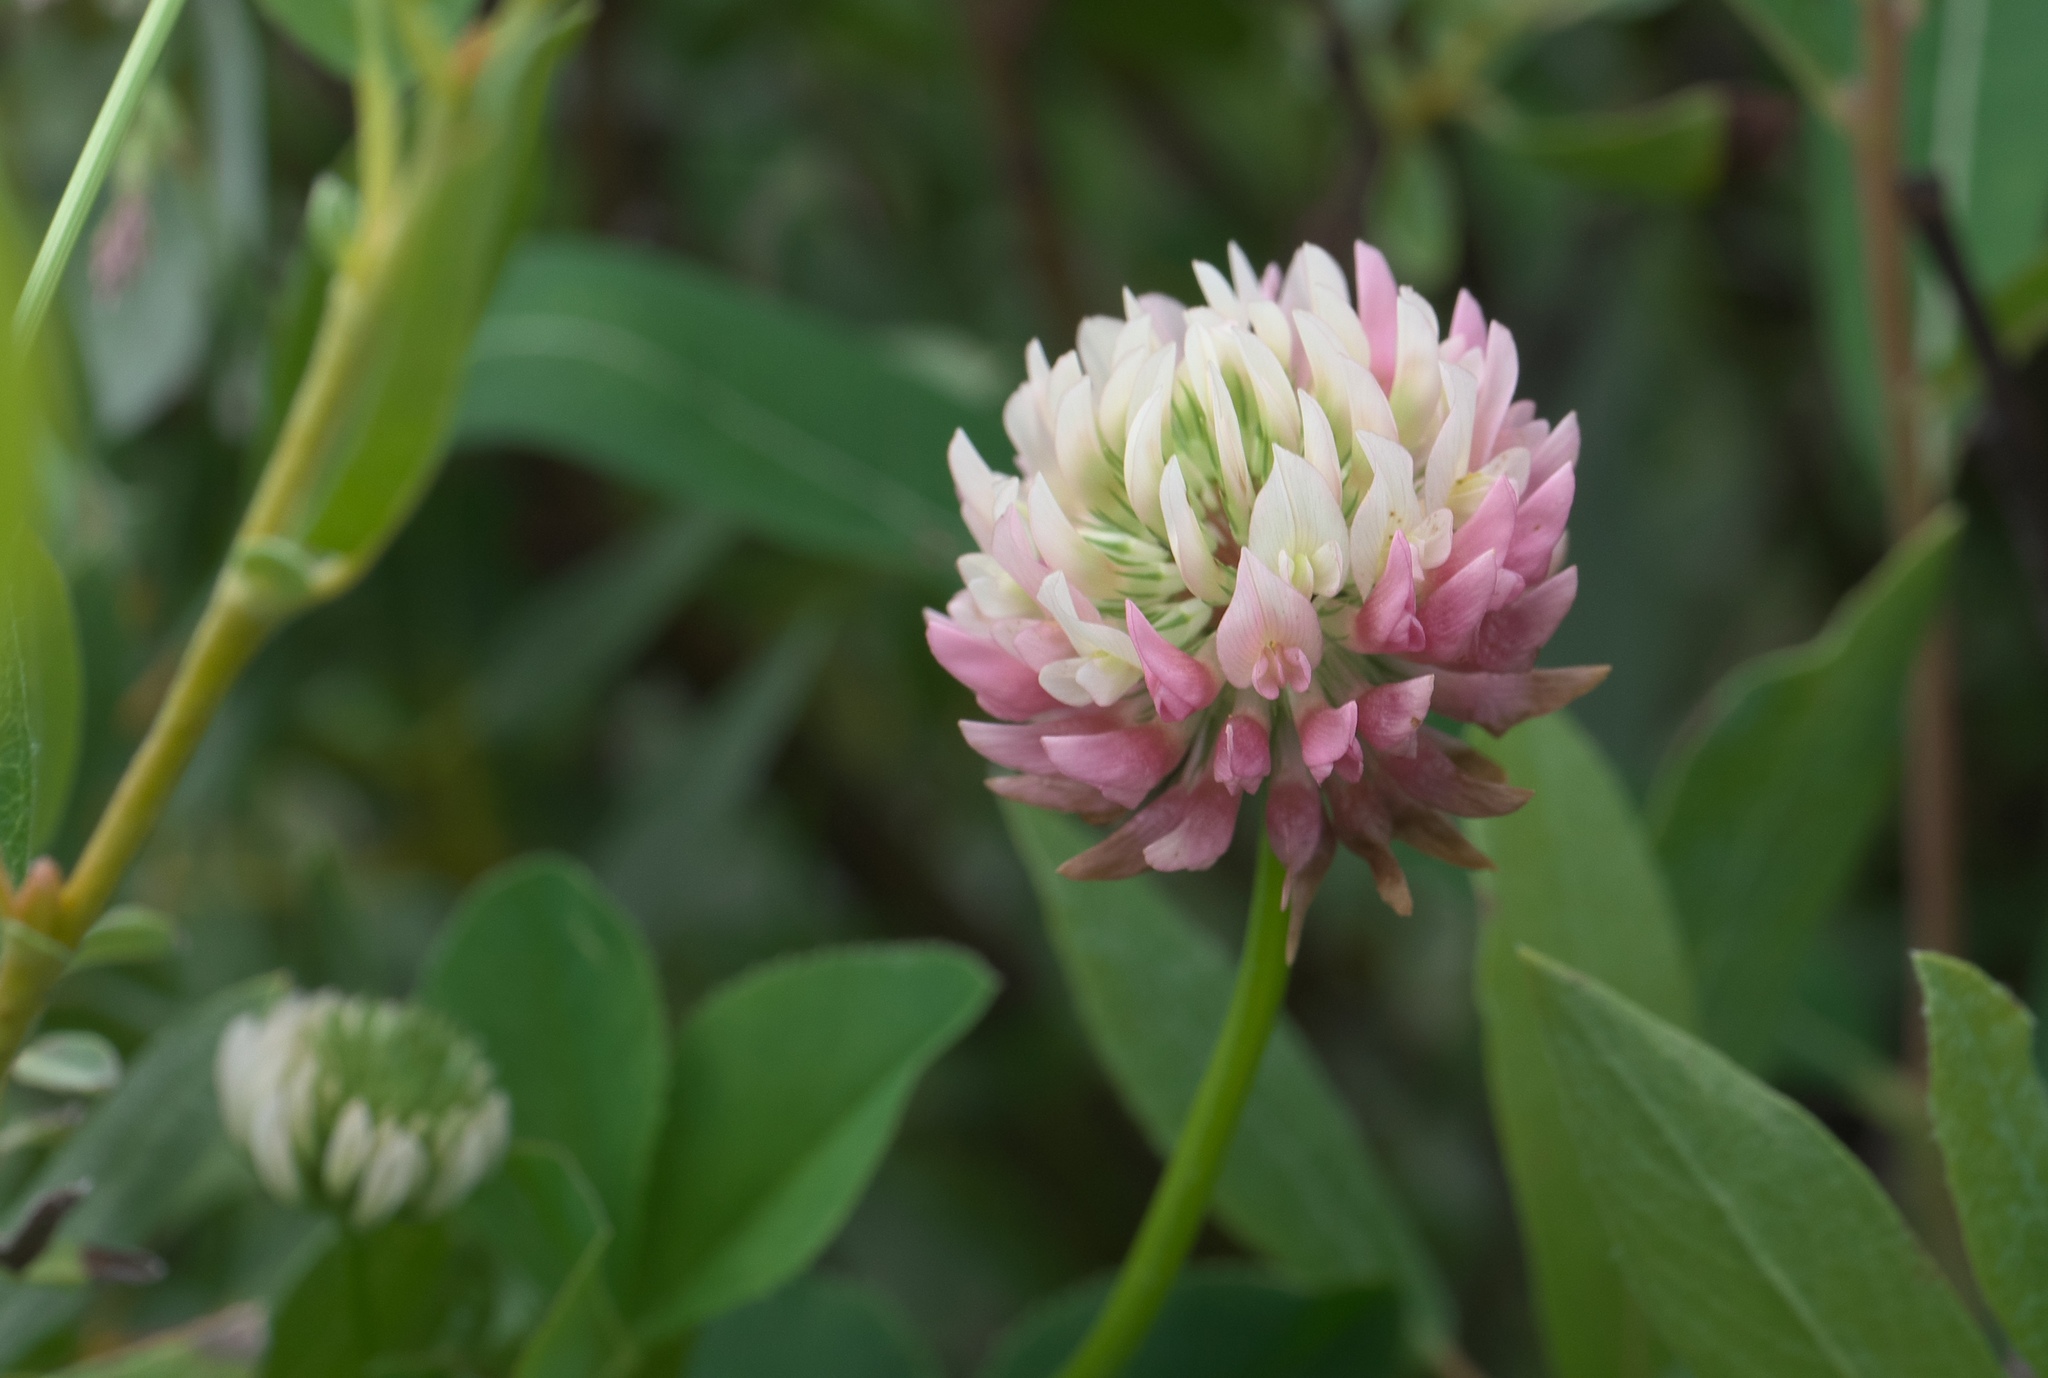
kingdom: Plantae
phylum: Tracheophyta
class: Magnoliopsida
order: Fabales
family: Fabaceae
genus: Trifolium
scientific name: Trifolium hybridum
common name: Alsike clover
